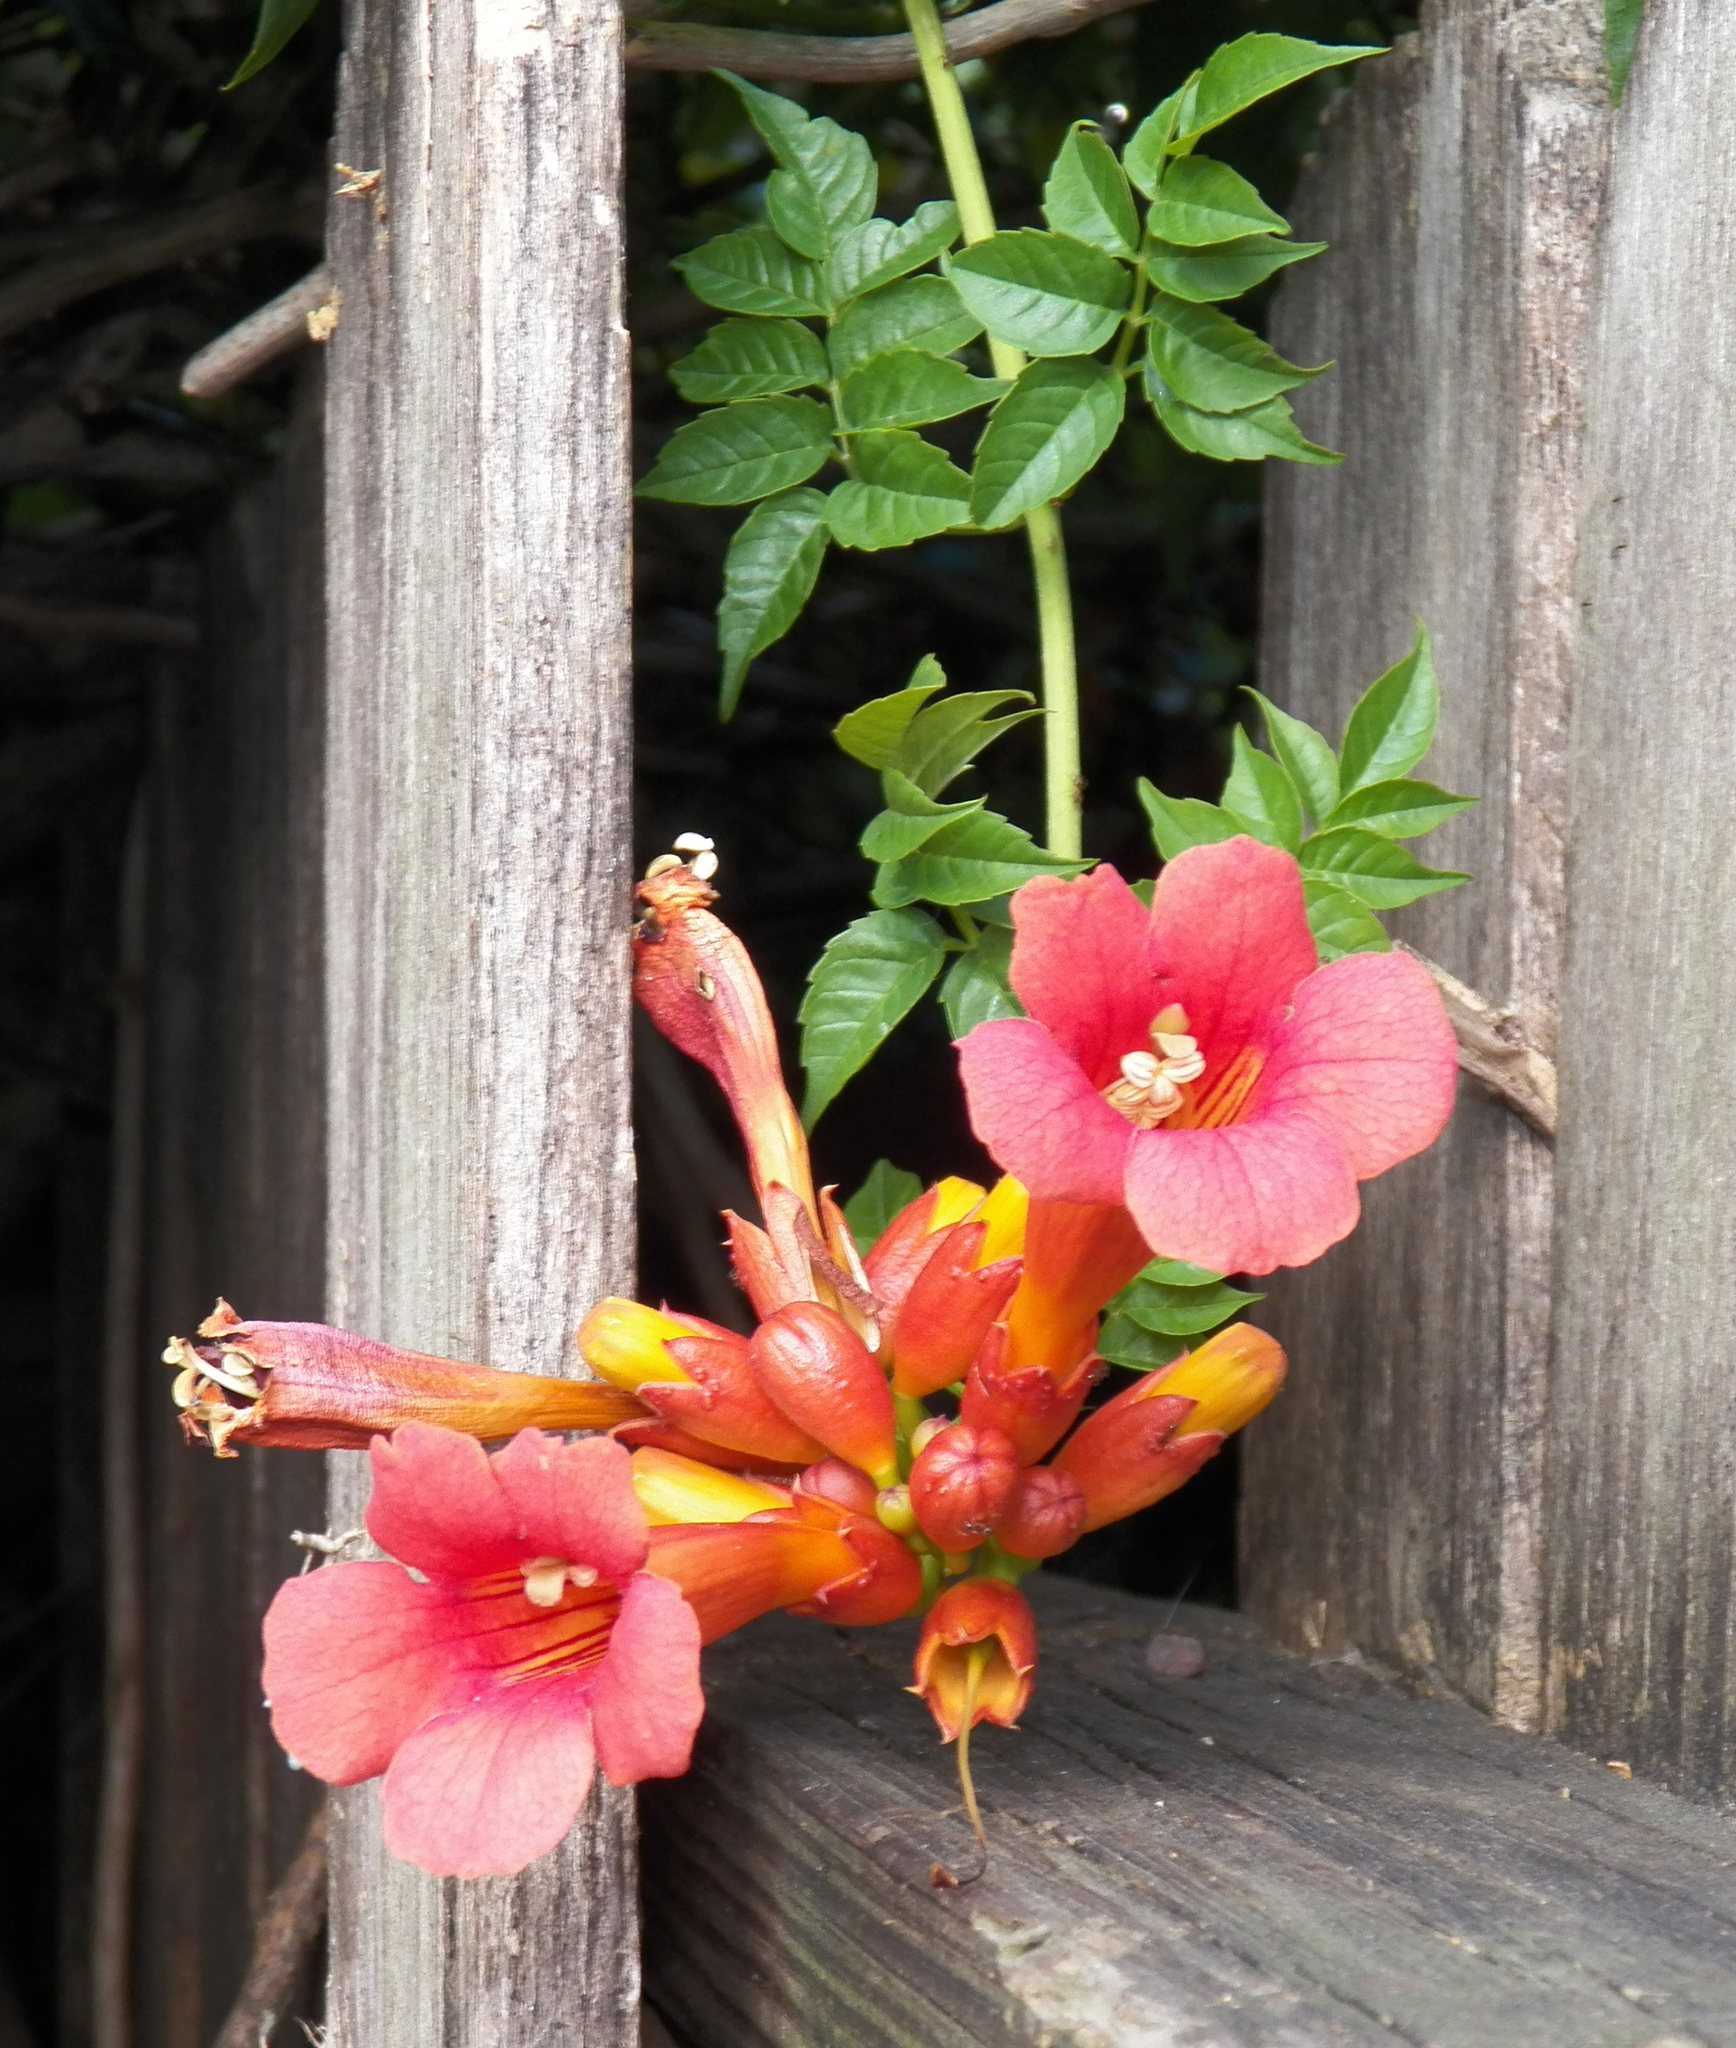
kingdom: Plantae
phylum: Tracheophyta
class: Magnoliopsida
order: Lamiales
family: Bignoniaceae
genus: Campsis
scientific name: Campsis radicans
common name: Trumpet-creeper
